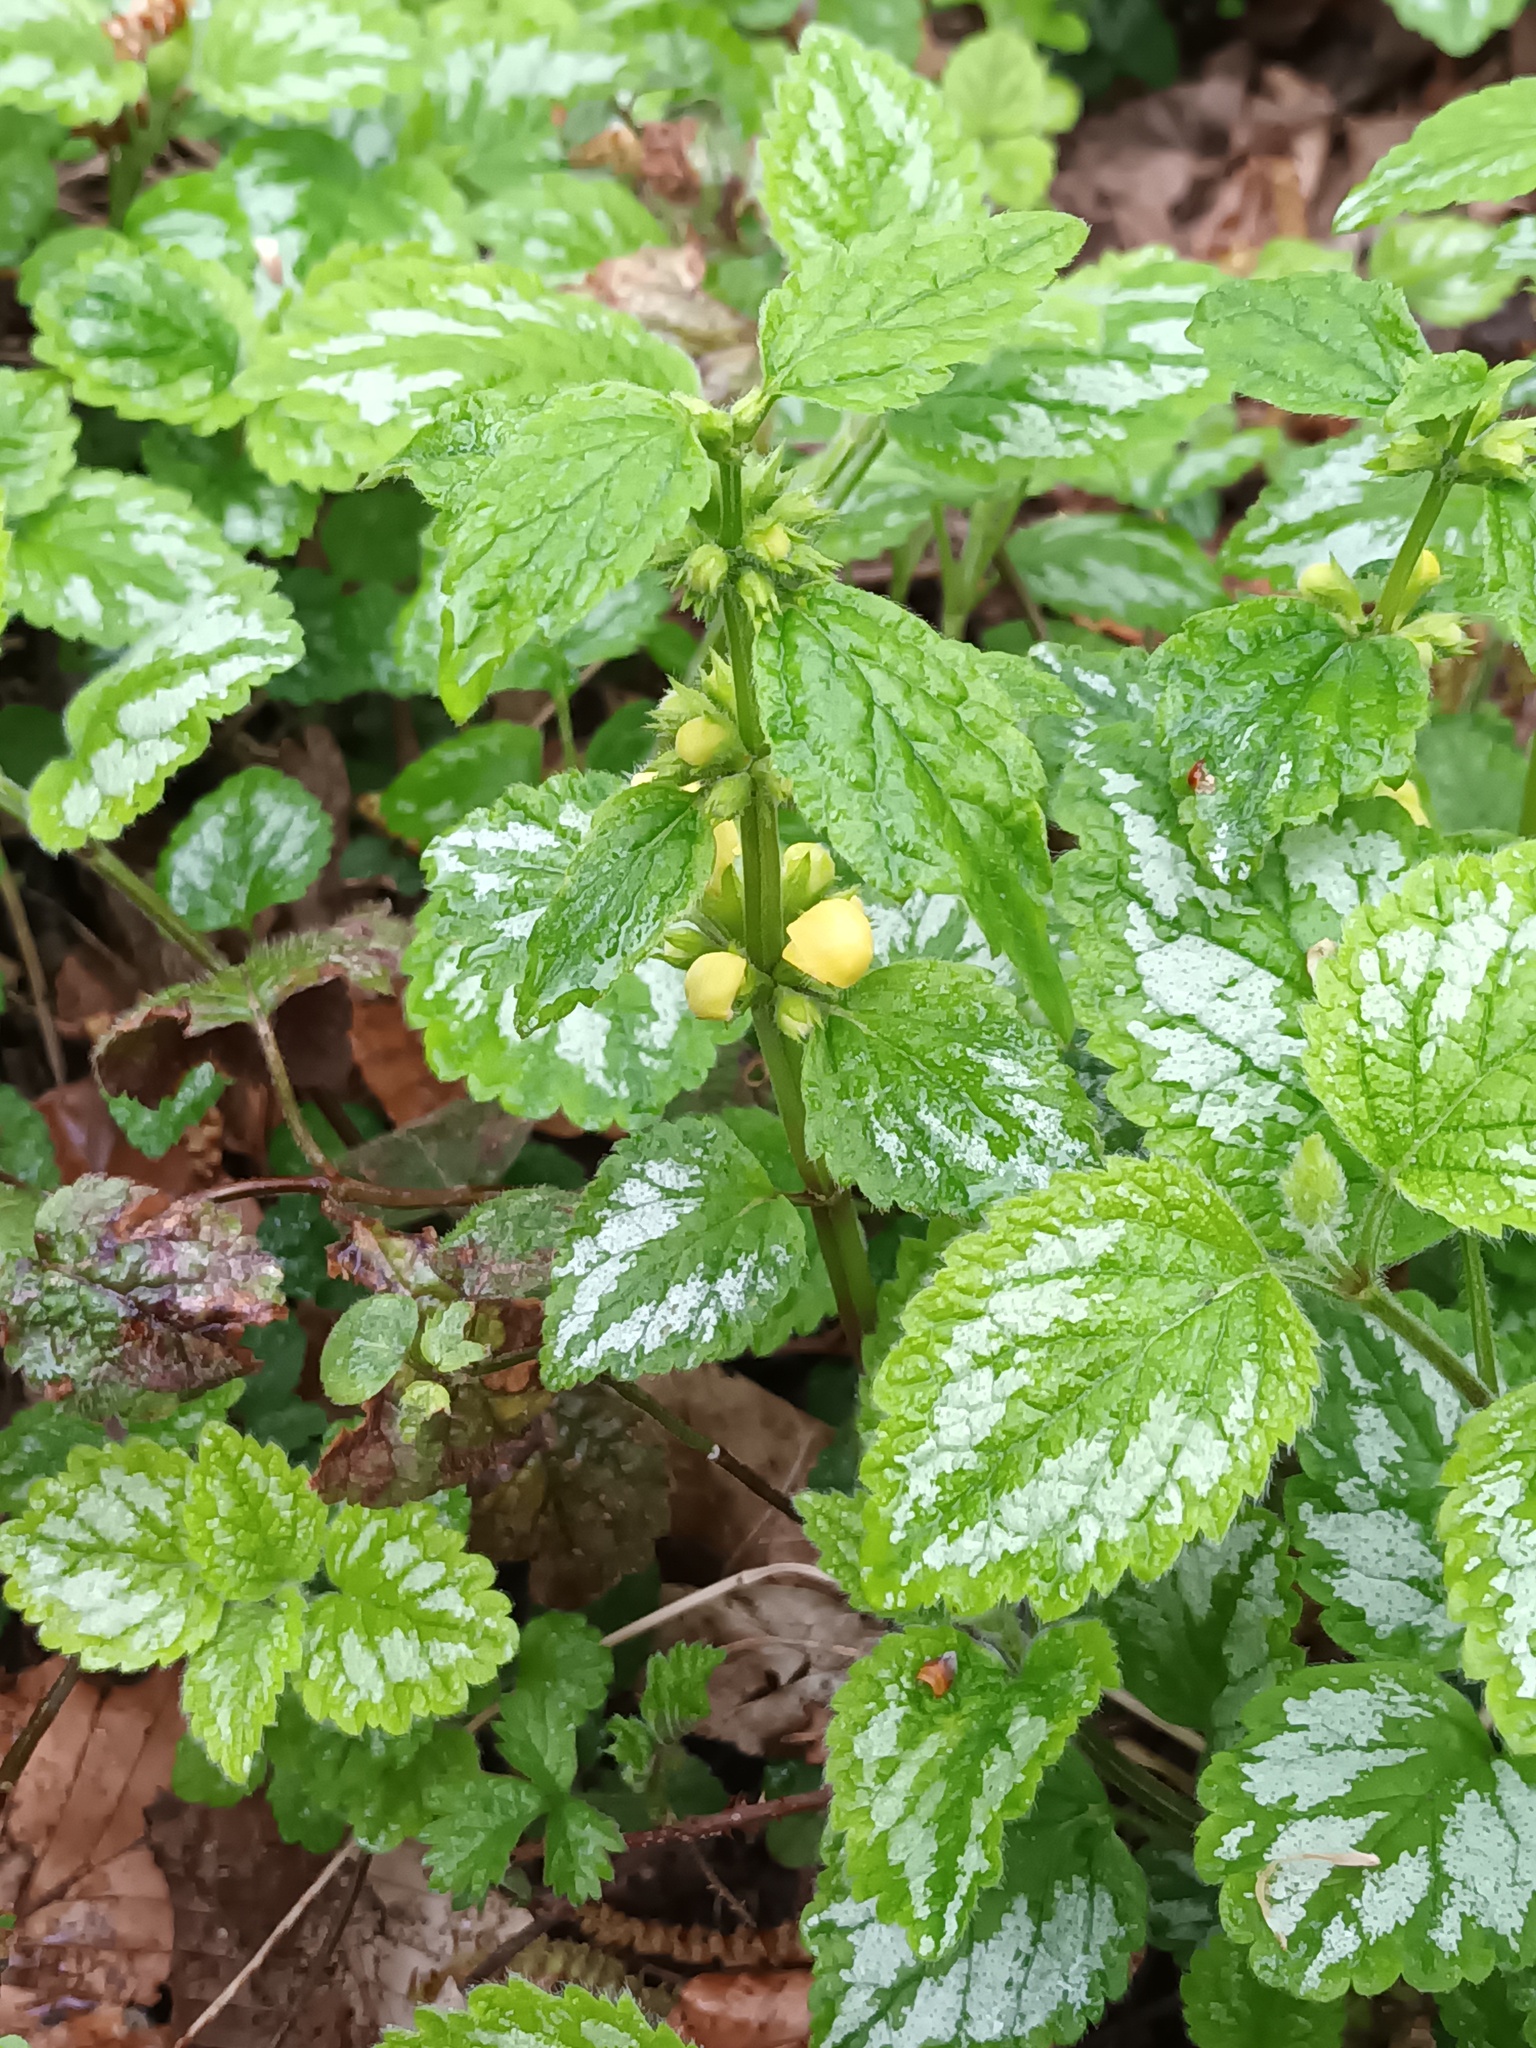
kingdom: Plantae
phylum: Tracheophyta
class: Magnoliopsida
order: Lamiales
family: Lamiaceae
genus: Lamium
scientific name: Lamium galeobdolon
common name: Yellow archangel
